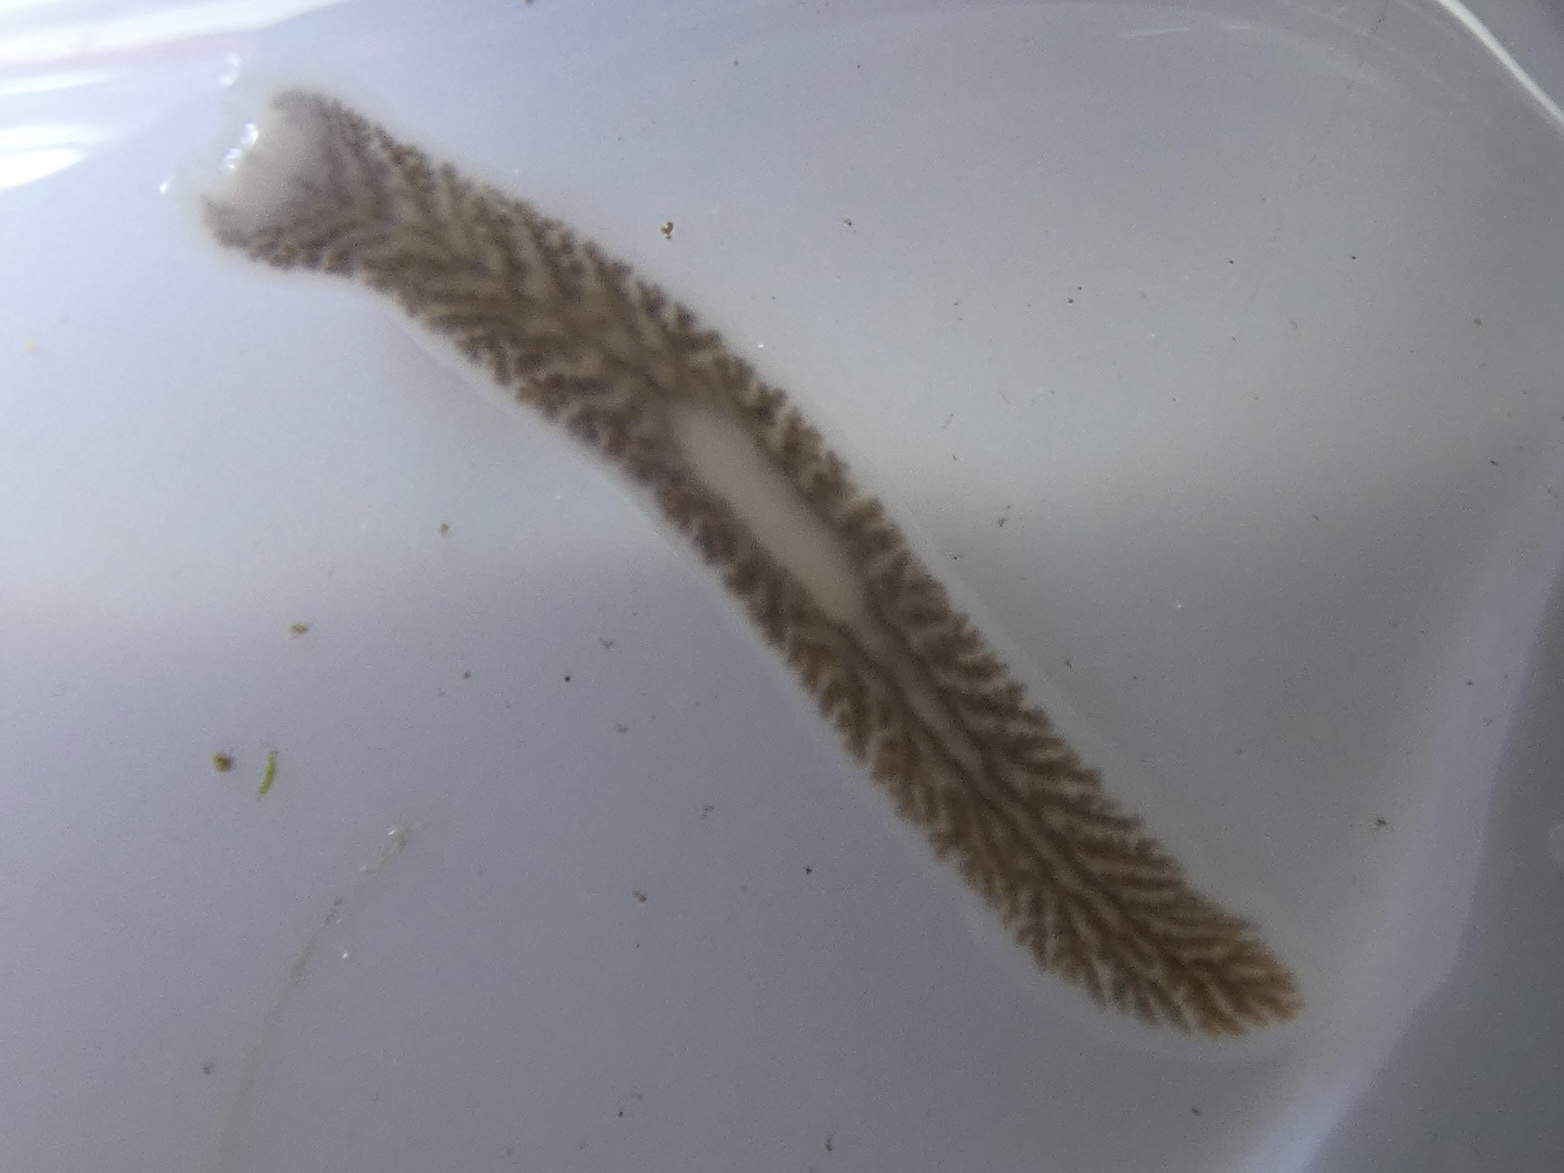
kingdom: Animalia
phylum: Platyhelminthes
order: Tricladida
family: Dendrocoelidae
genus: Dendrocoelum
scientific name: Dendrocoelum lacteum
